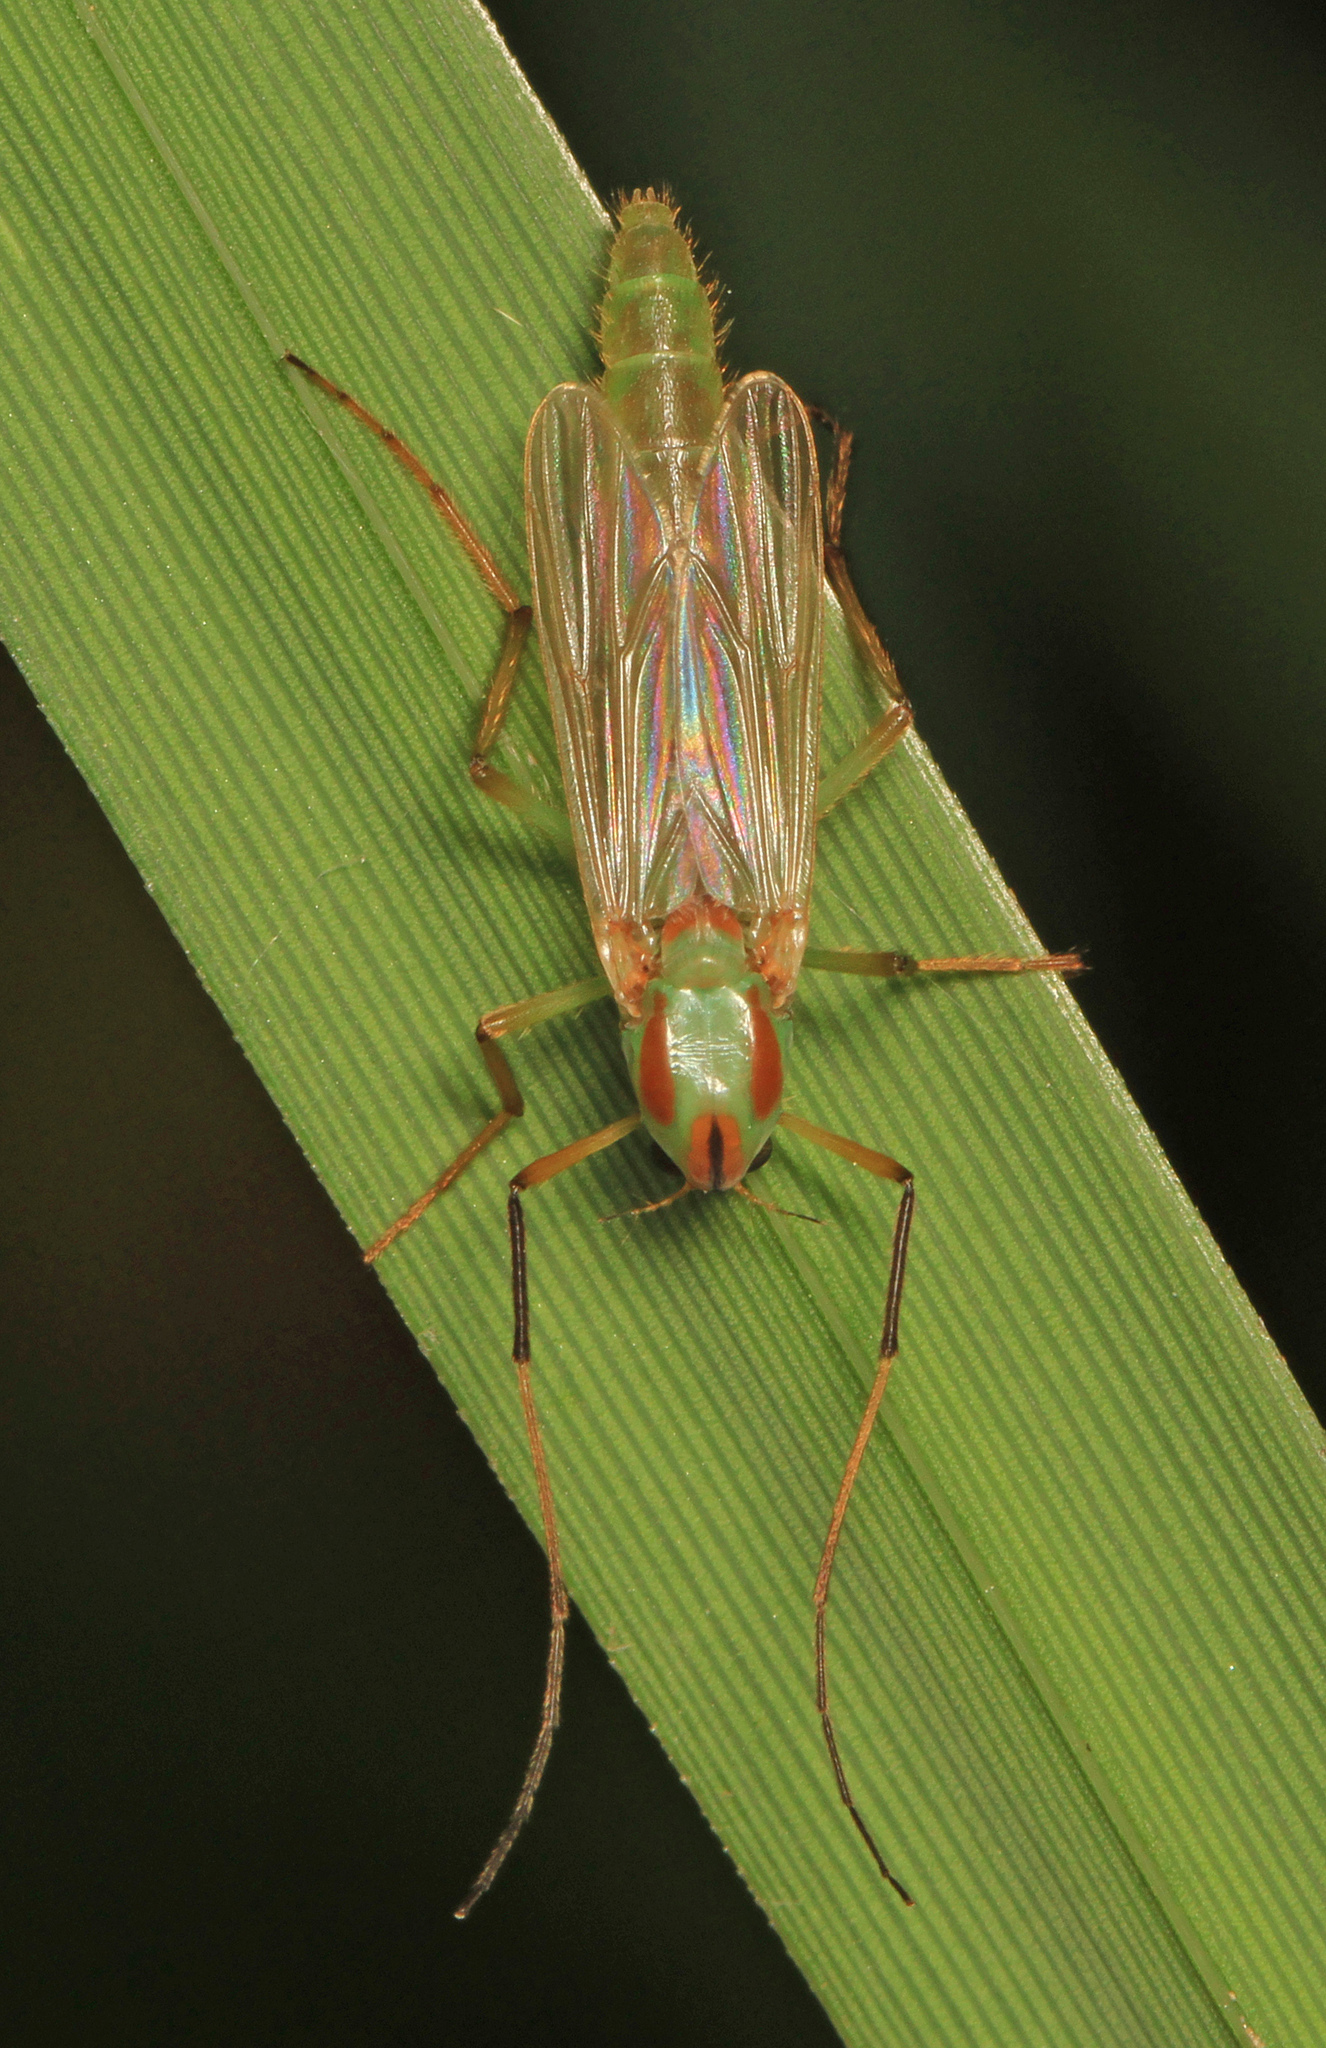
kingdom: Animalia
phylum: Arthropoda
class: Insecta
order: Diptera
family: Chironomidae
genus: Axarus
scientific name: Axarus
